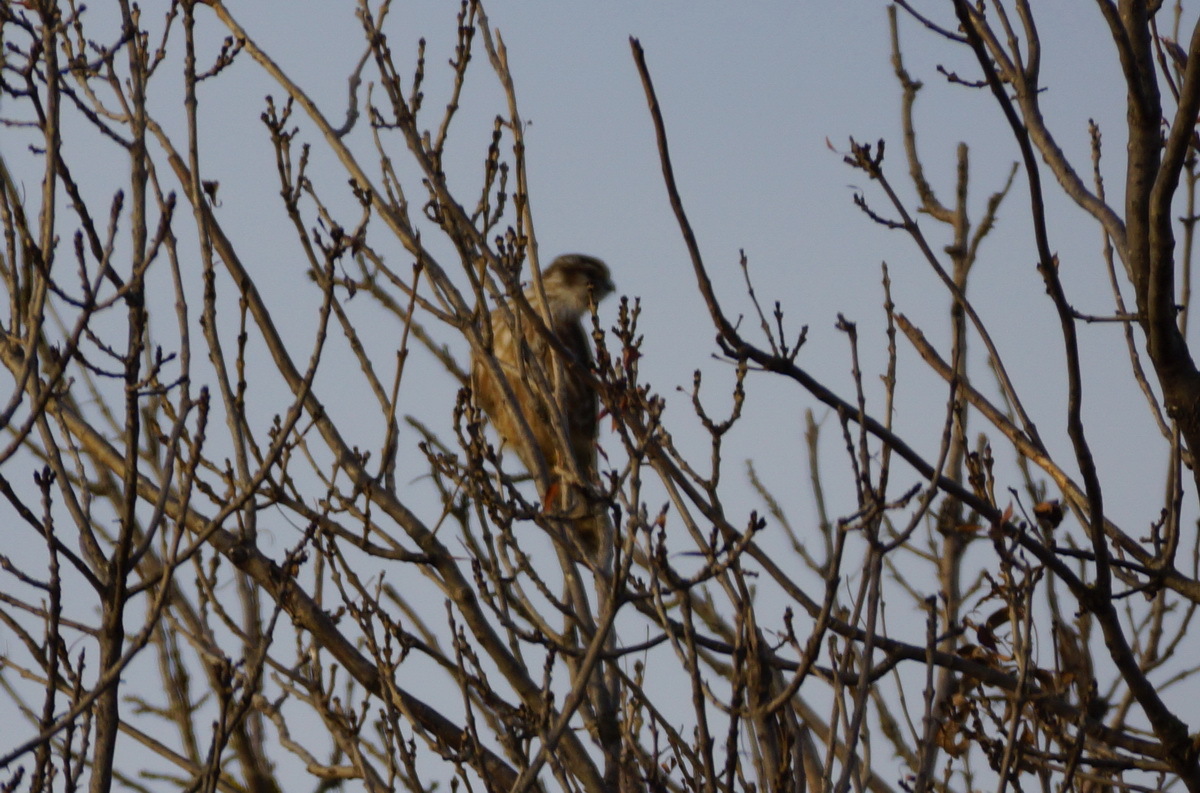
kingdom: Animalia
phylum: Chordata
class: Aves
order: Falconiformes
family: Falconidae
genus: Falco
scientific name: Falco columbarius
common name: Merlin
